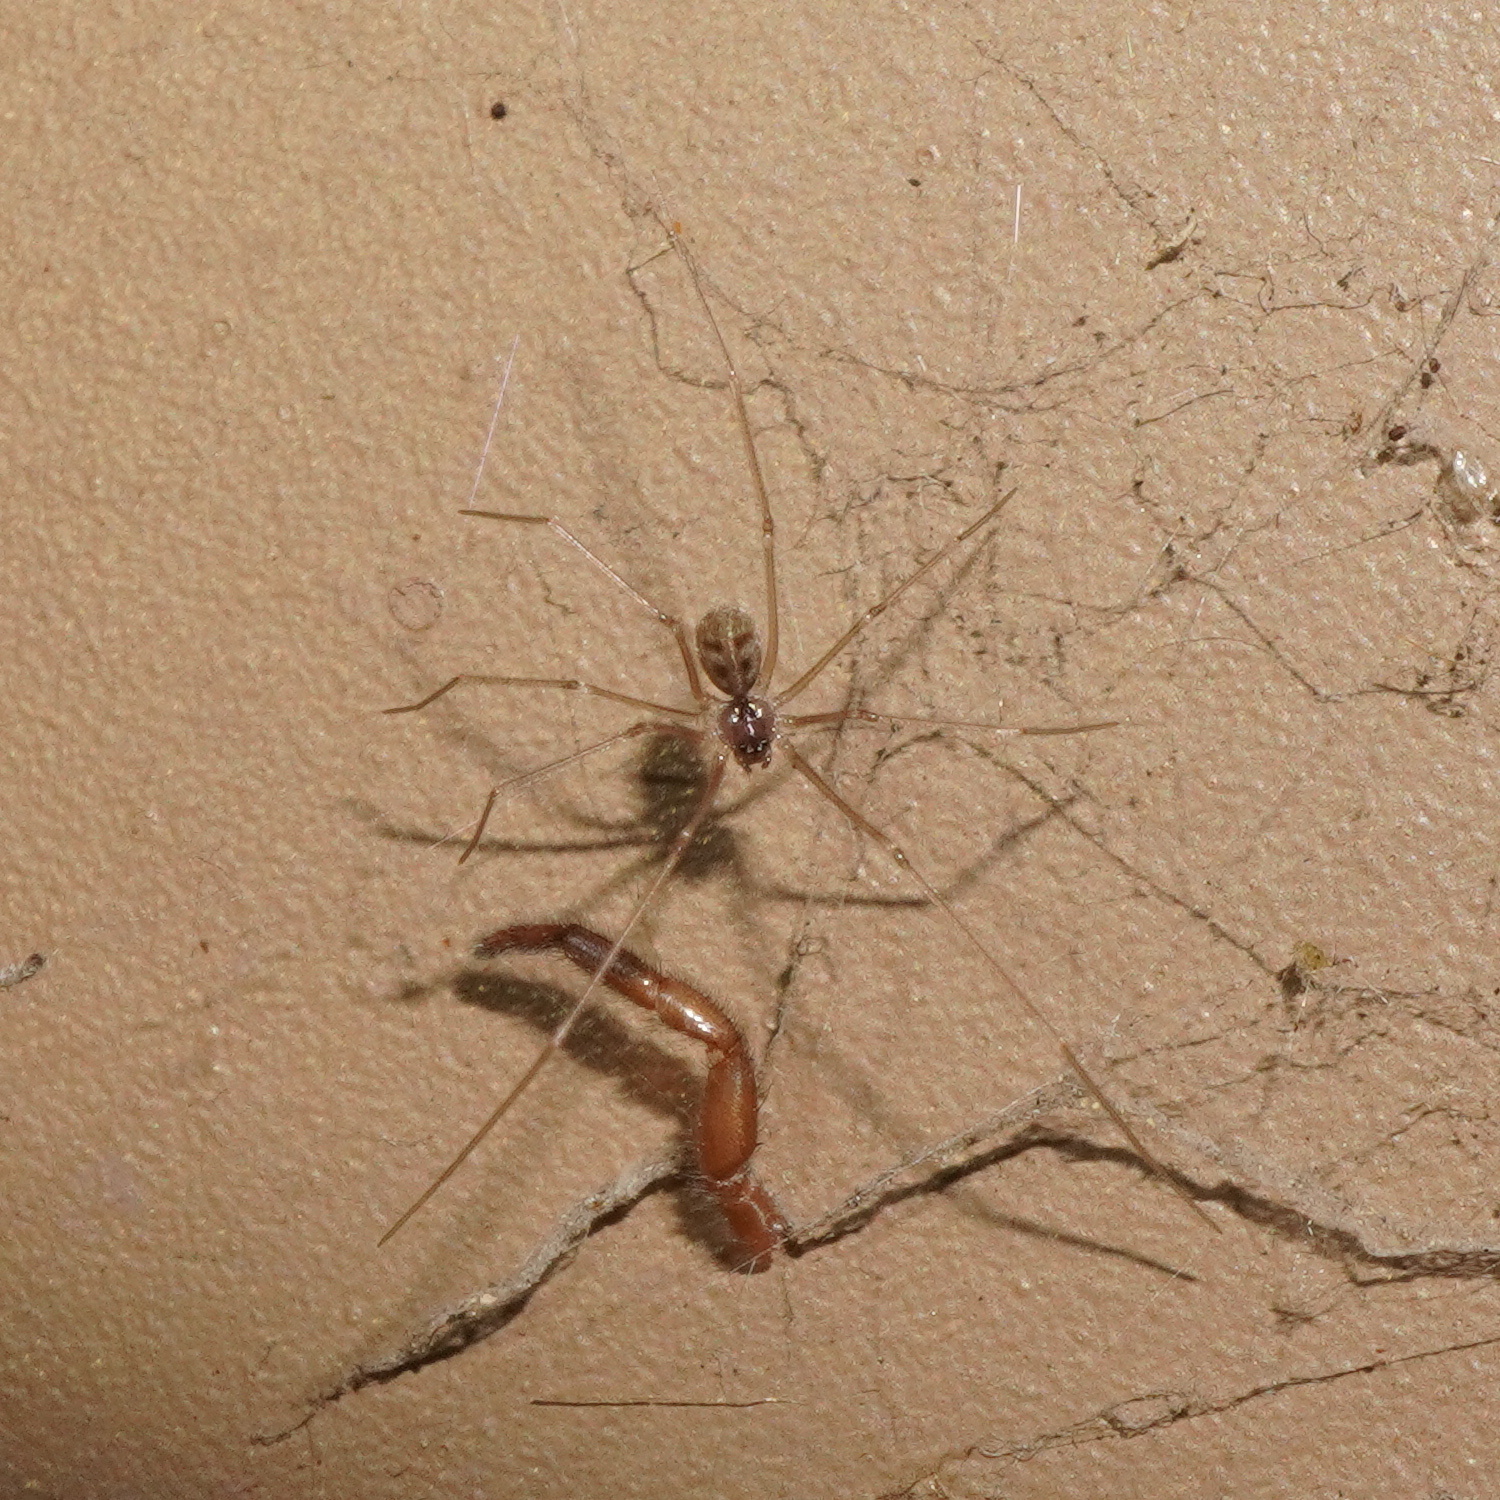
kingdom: Animalia
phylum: Arthropoda
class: Arachnida
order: Araneae
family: Pholcidae
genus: Hoplopholcus
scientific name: Hoplopholcus forskali
